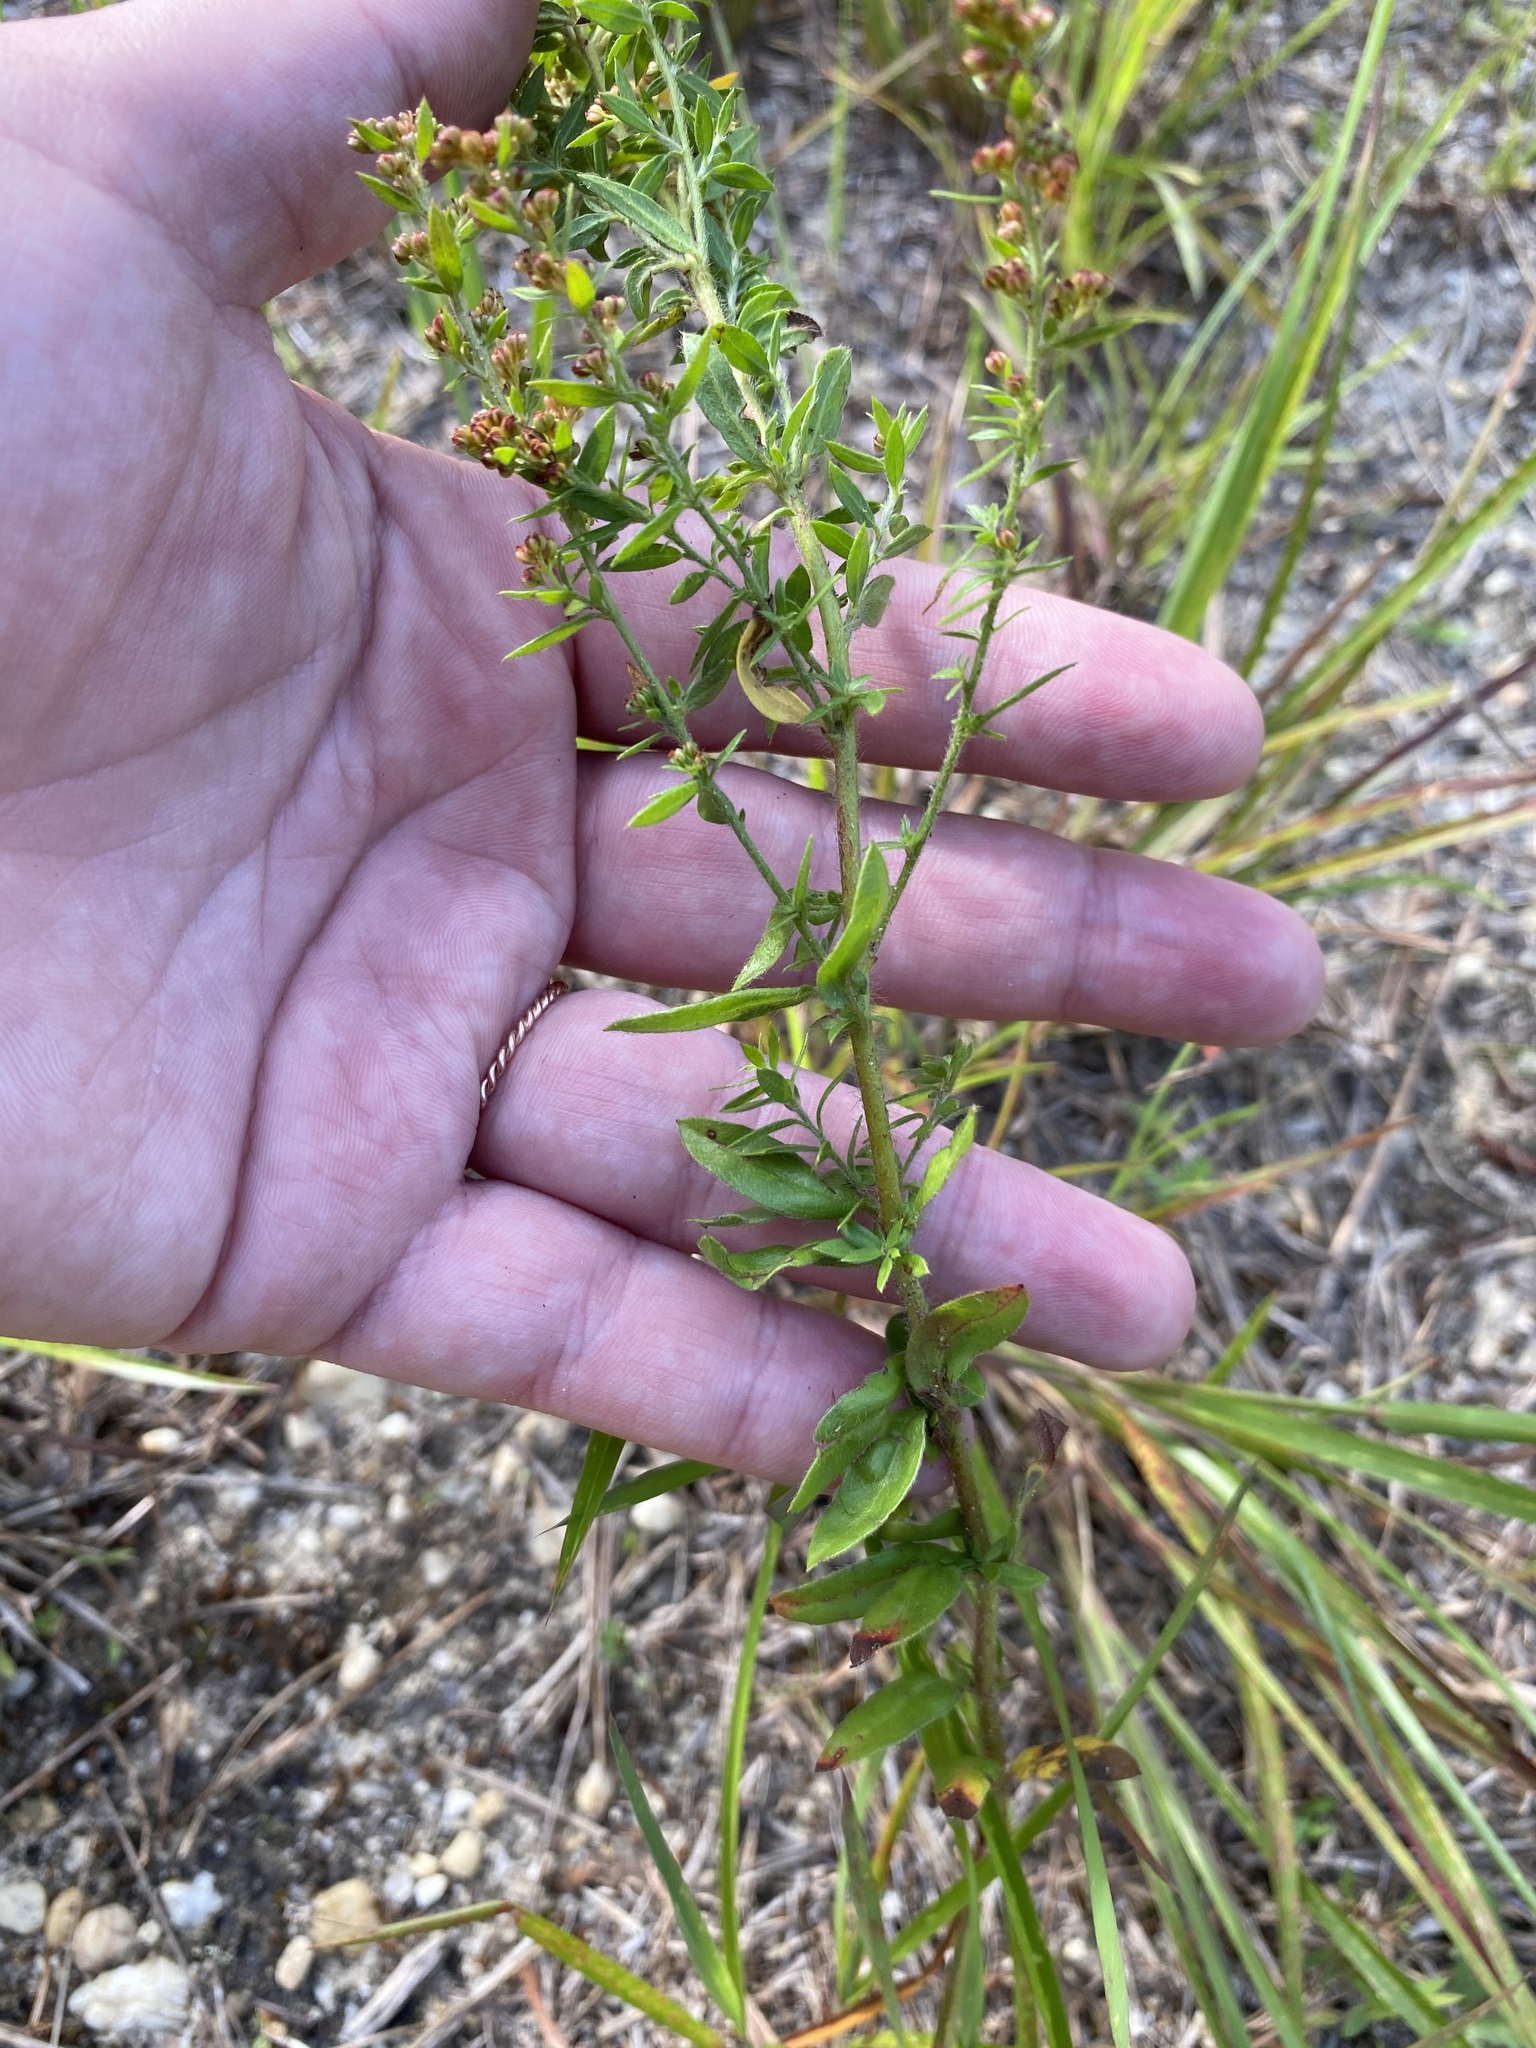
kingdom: Plantae
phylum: Tracheophyta
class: Magnoliopsida
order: Malvales
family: Cistaceae
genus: Lechea
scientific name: Lechea mucronata
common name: Hairy pinweed
